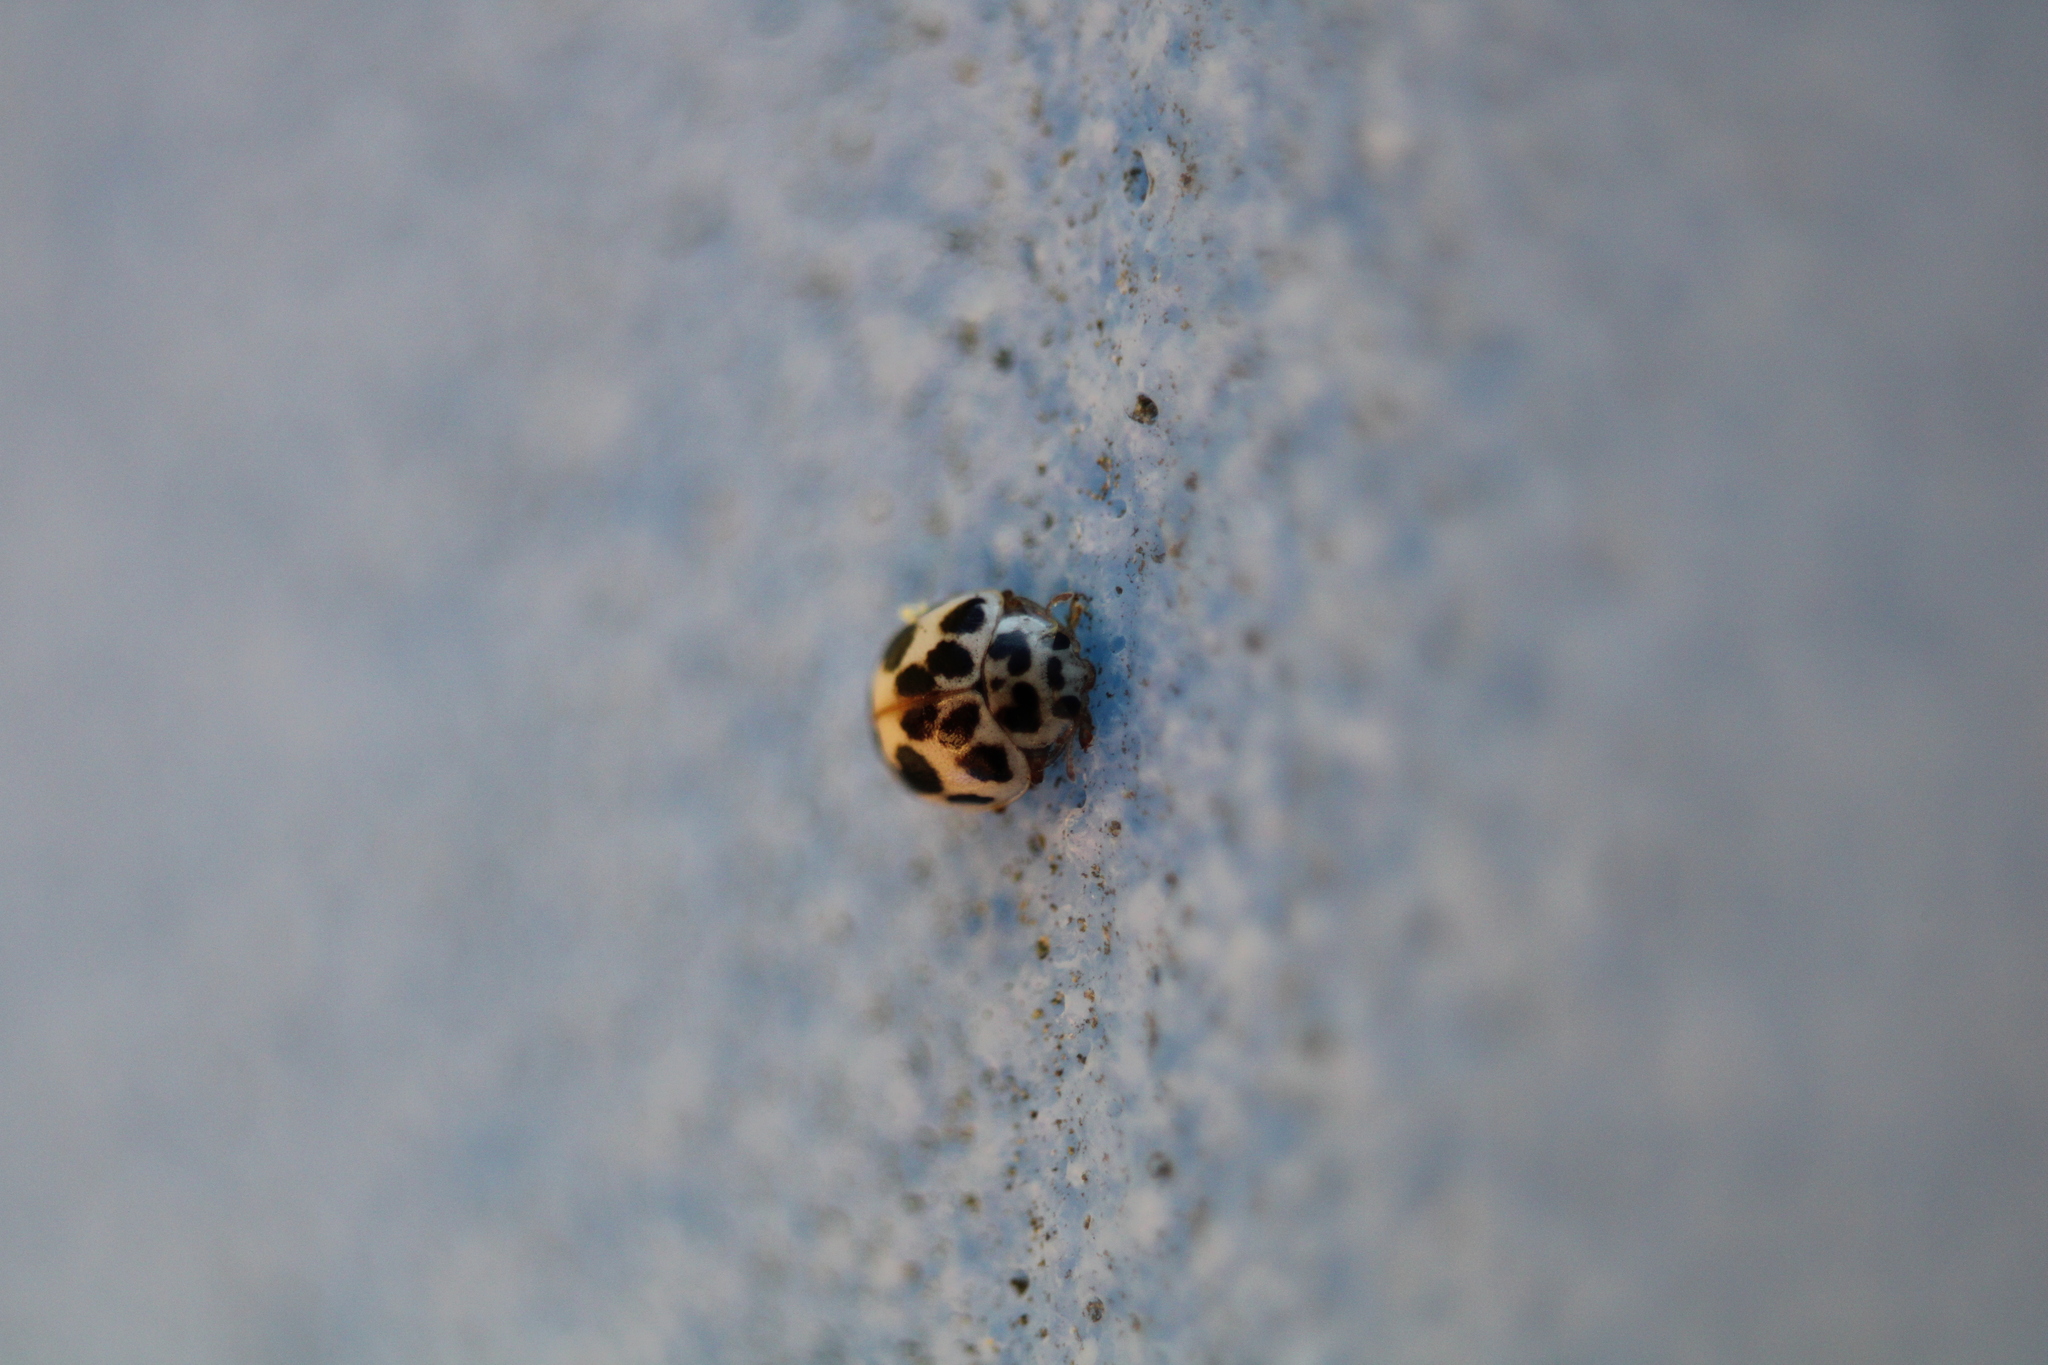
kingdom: Animalia
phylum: Arthropoda
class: Insecta
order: Coleoptera
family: Coccinellidae
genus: Psyllobora
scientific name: Psyllobora vigintimaculata
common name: Ladybird beetle
